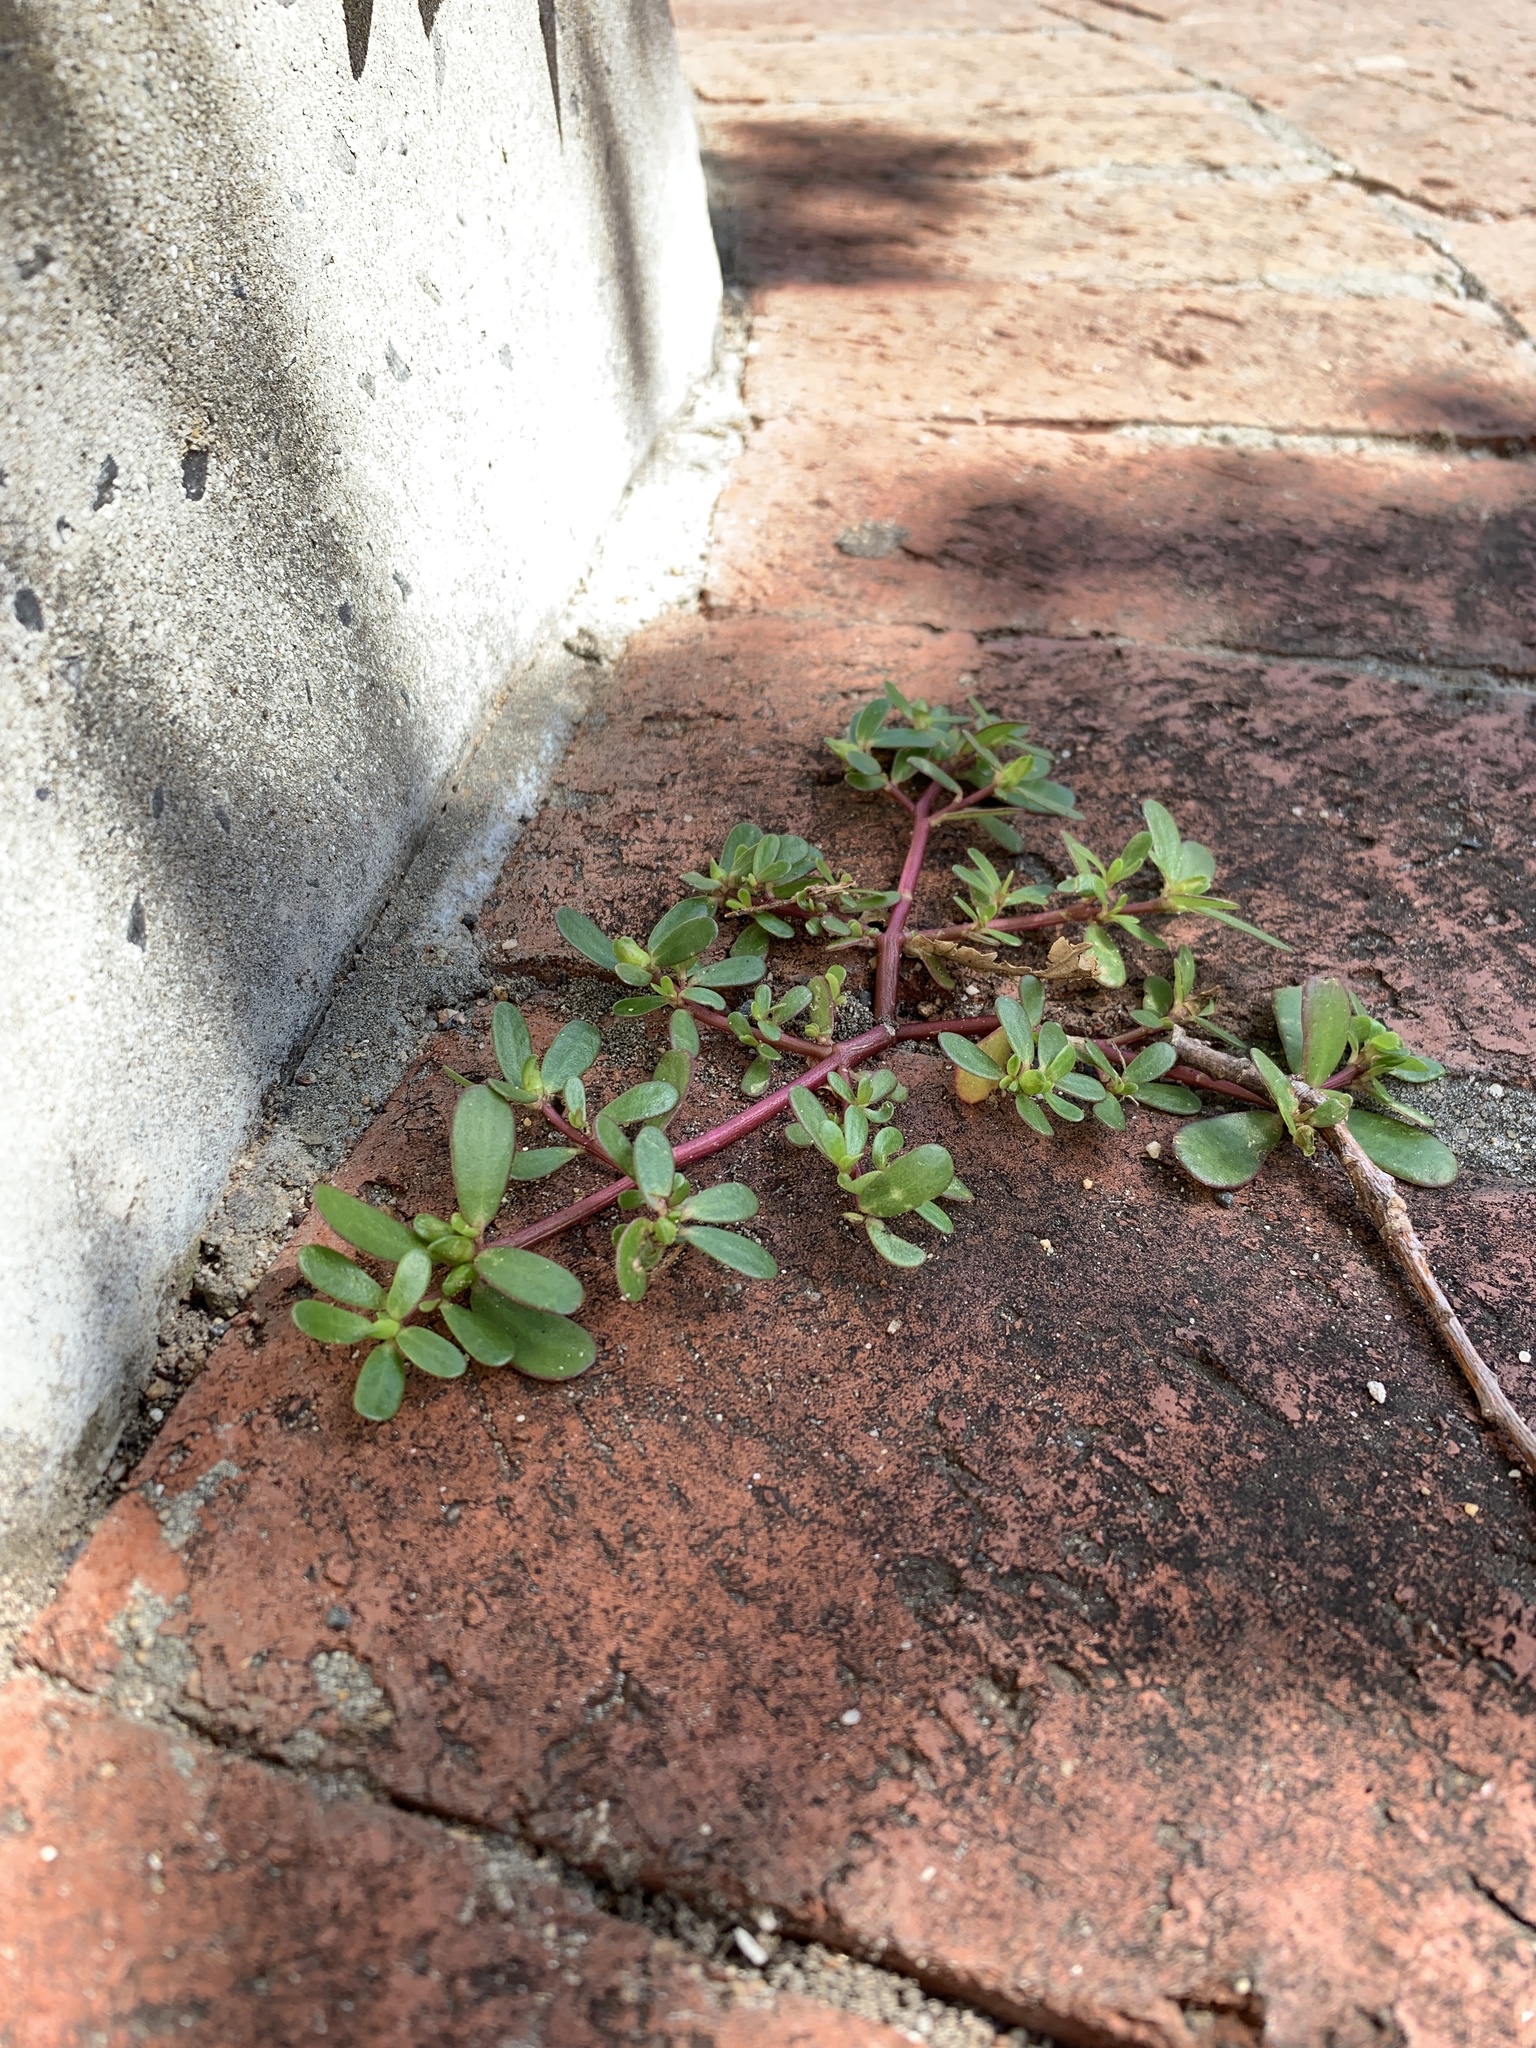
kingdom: Plantae
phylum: Tracheophyta
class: Magnoliopsida
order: Caryophyllales
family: Portulacaceae
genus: Portulaca
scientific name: Portulaca oleracea
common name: Common purslane
